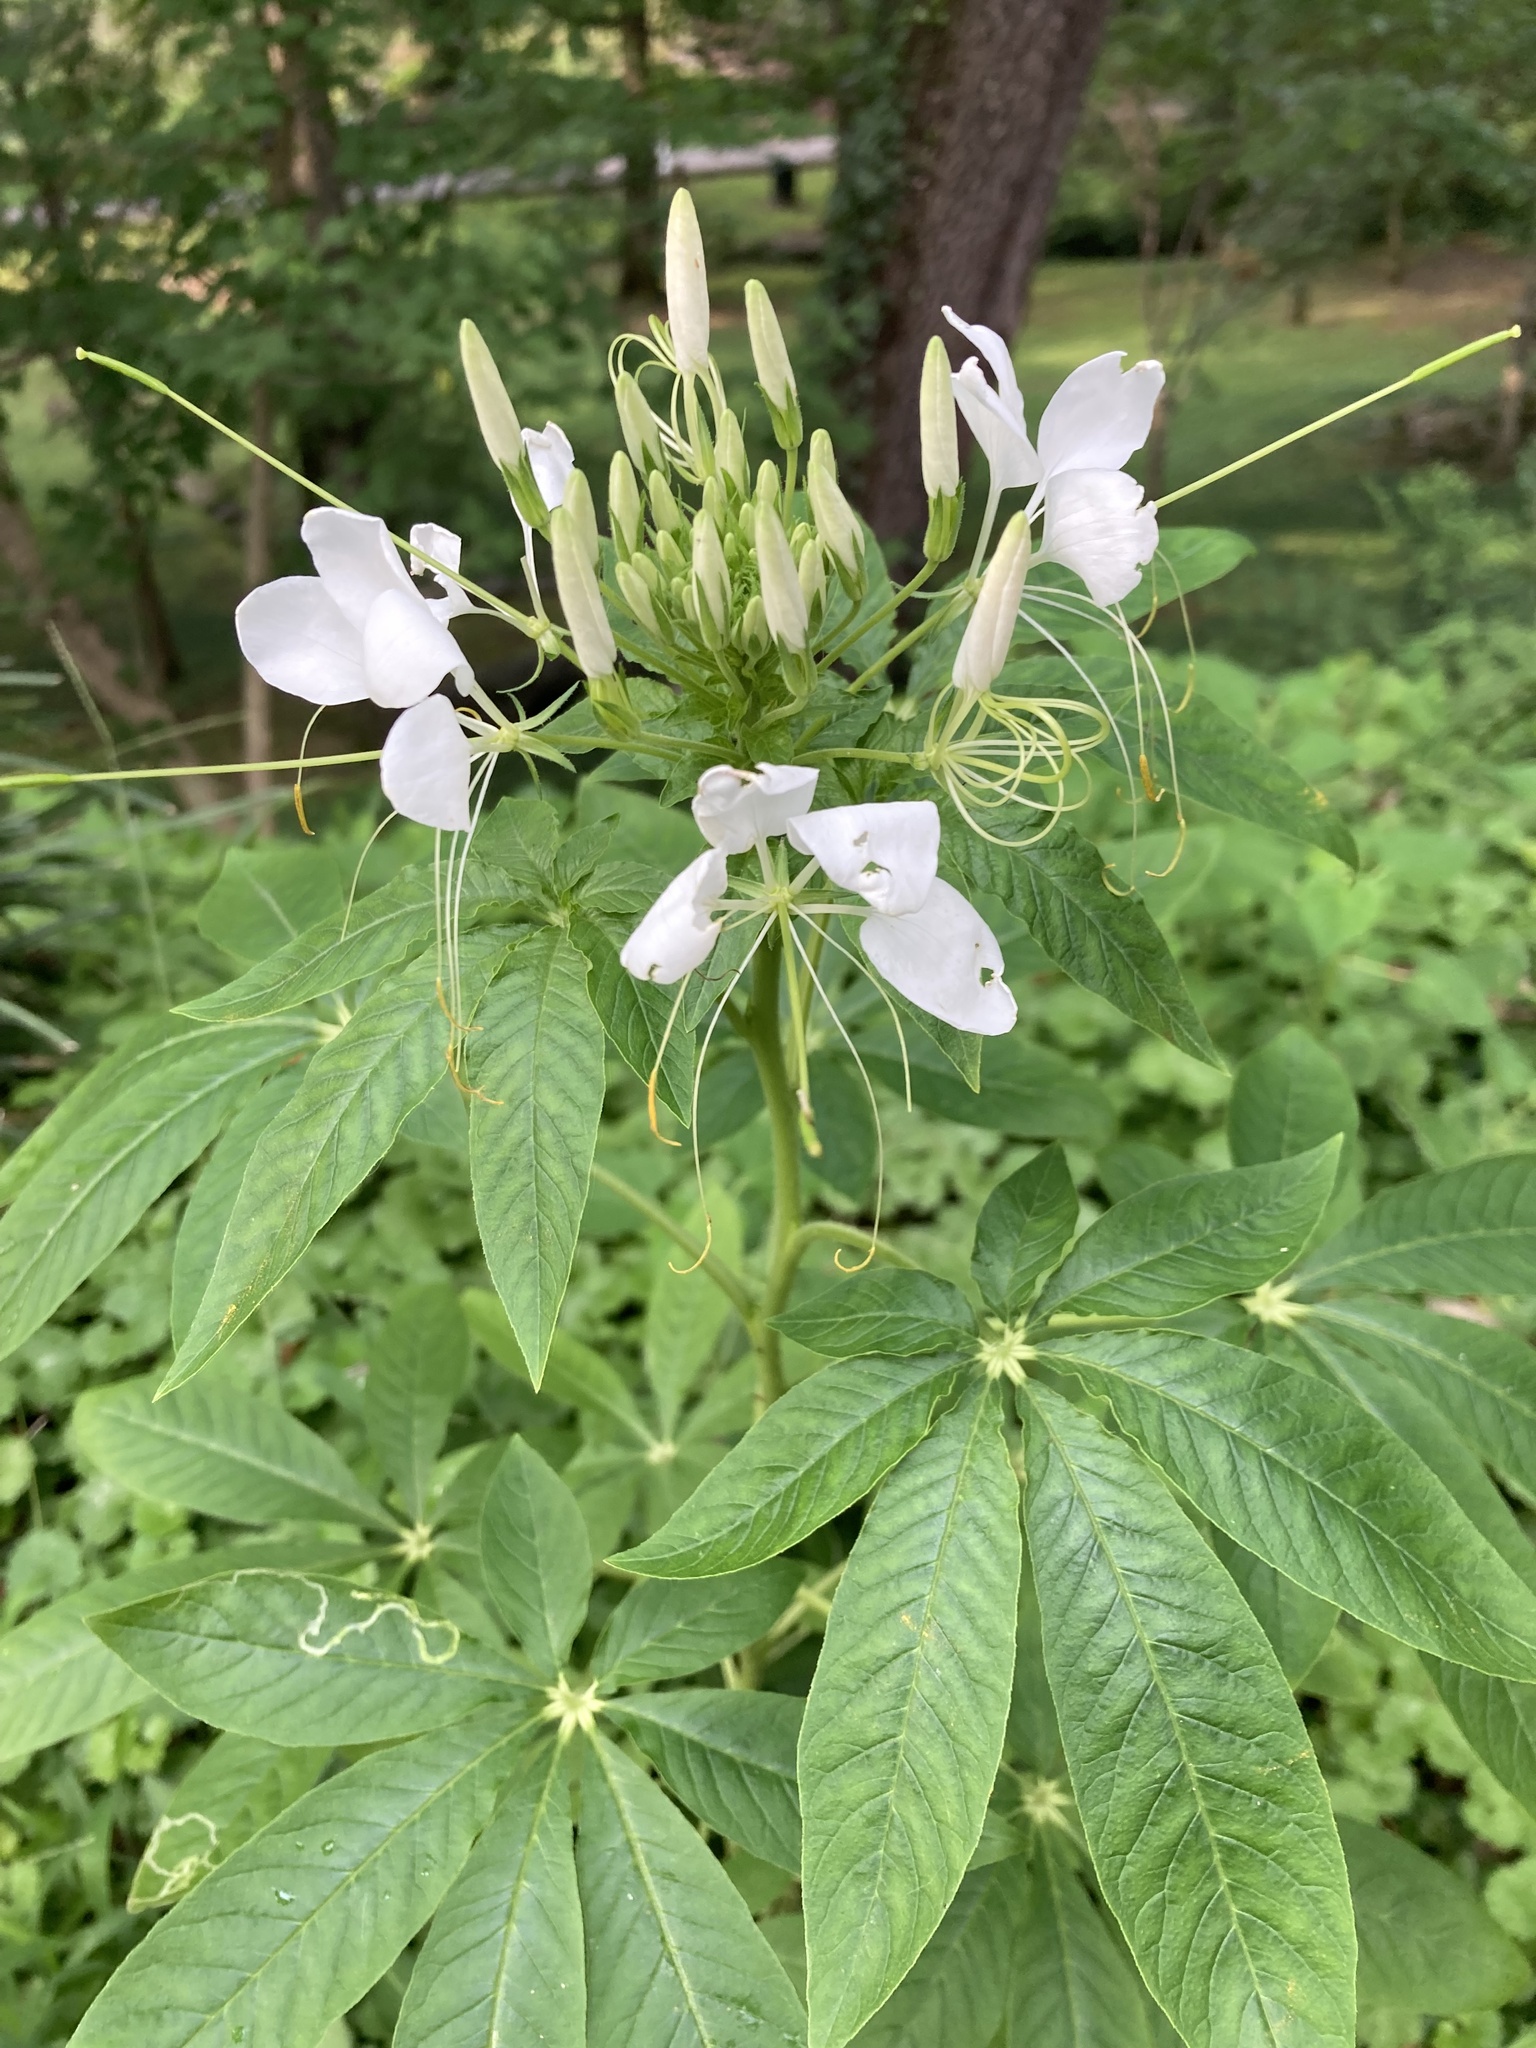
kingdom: Plantae
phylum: Tracheophyta
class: Magnoliopsida
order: Brassicales
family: Cleomaceae
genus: Tarenaya
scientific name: Tarenaya houtteana
